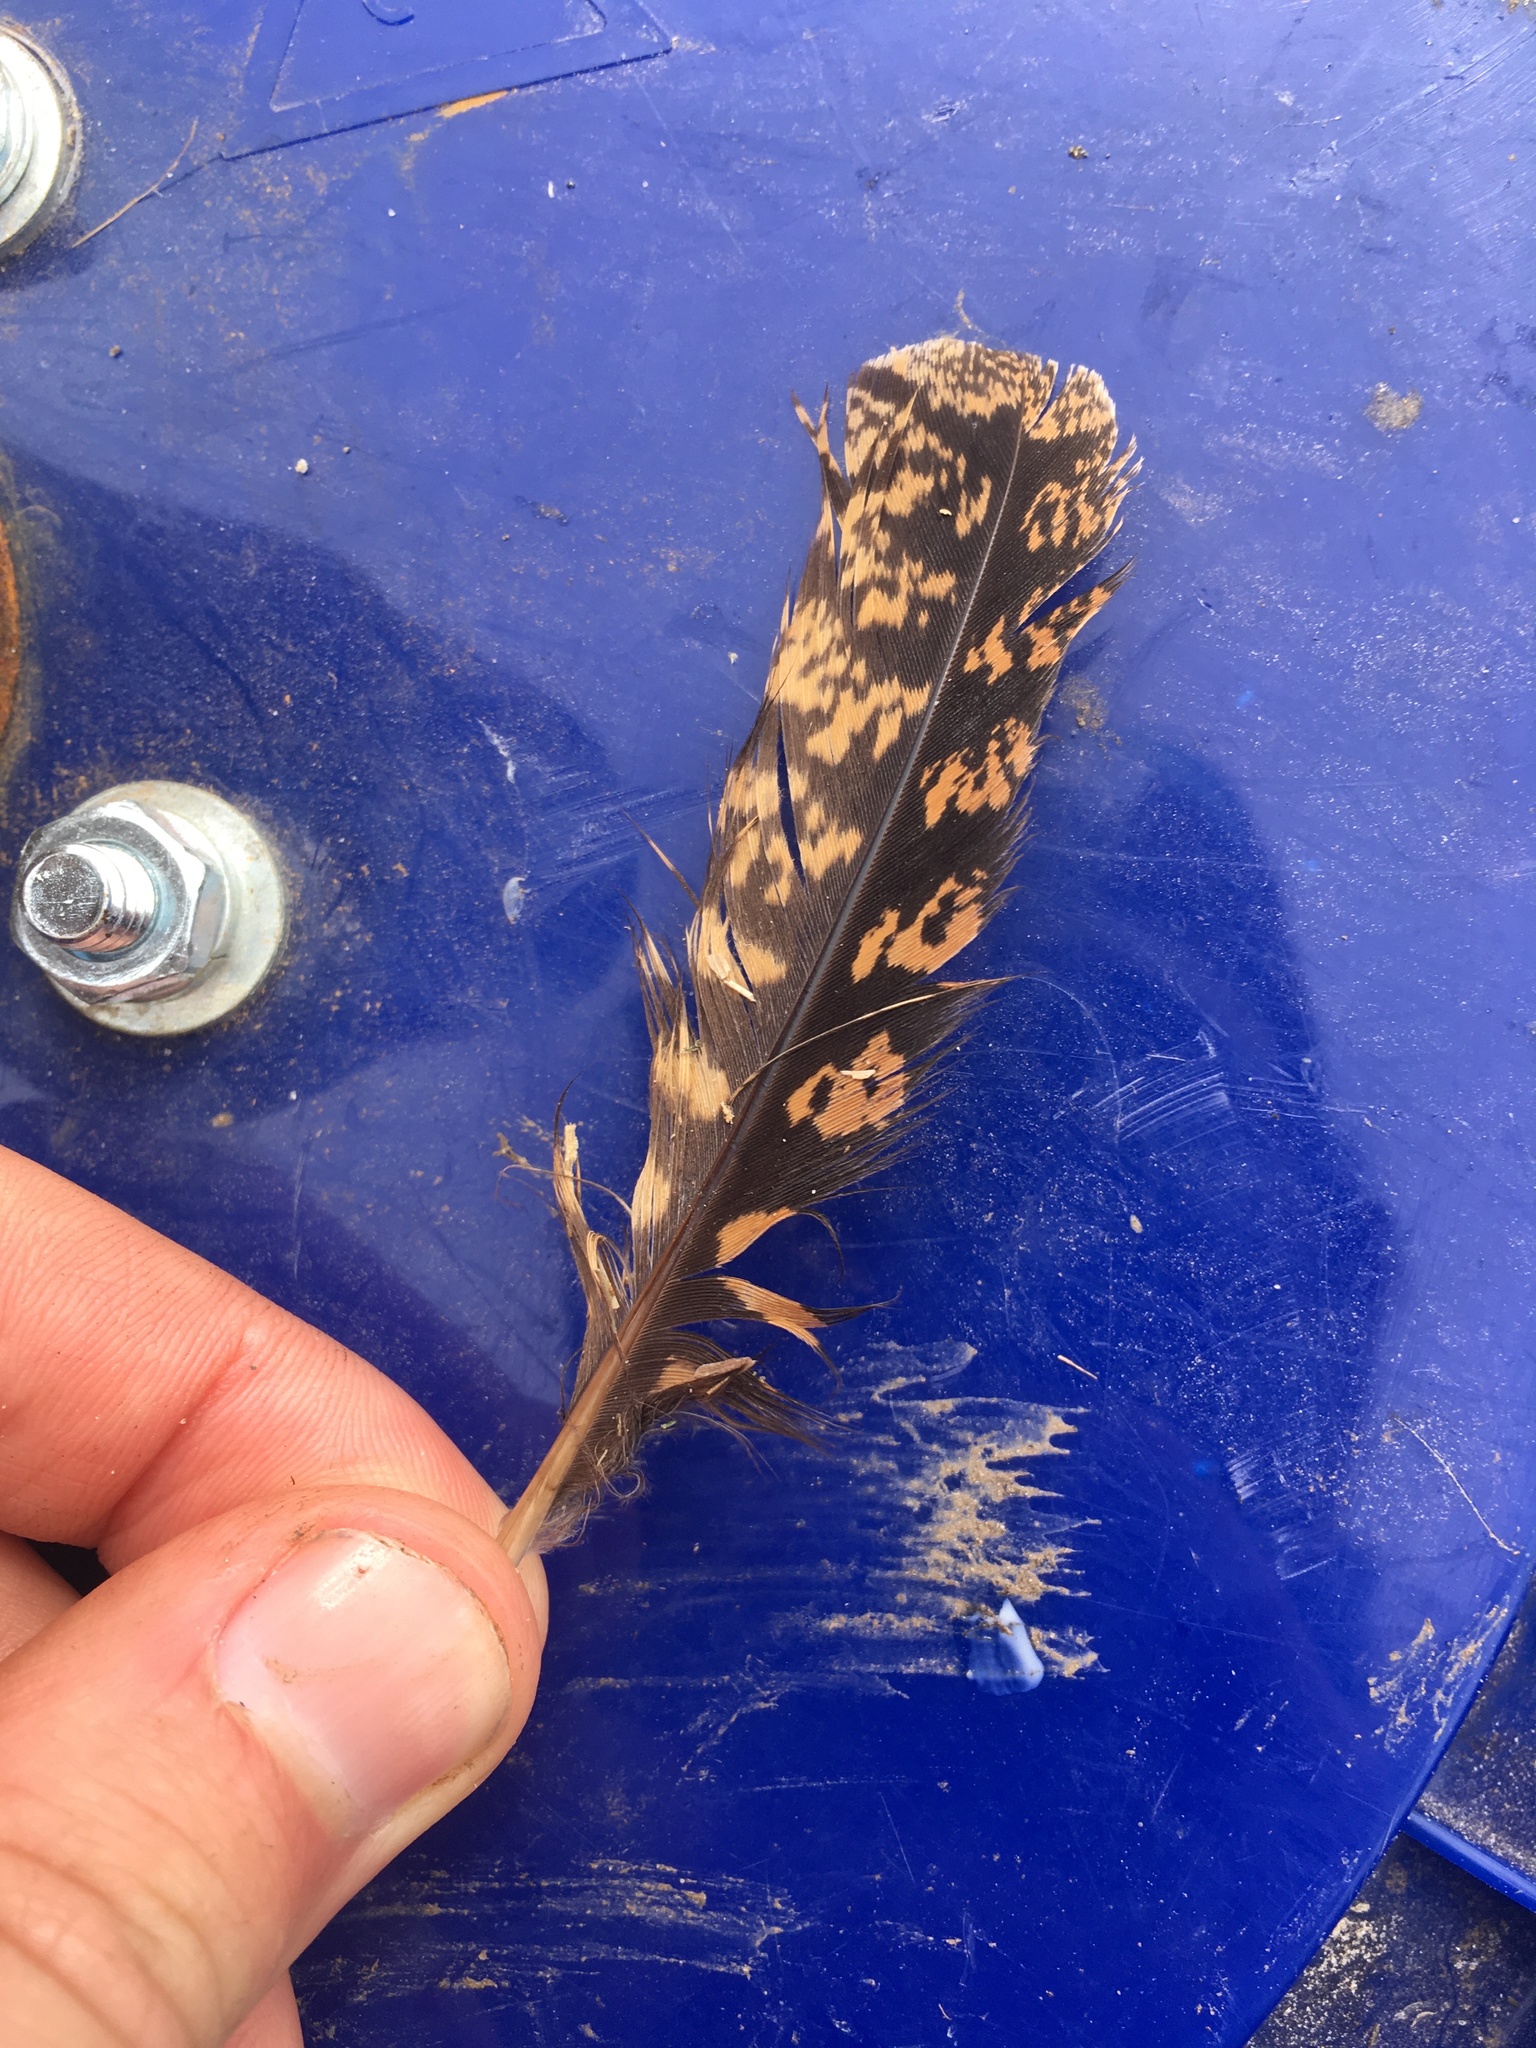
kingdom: Animalia
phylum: Chordata
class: Aves
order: Caprimulgiformes
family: Caprimulgidae
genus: Antrostomus
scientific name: Antrostomus carolinensis
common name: Chuck-will's-widow
